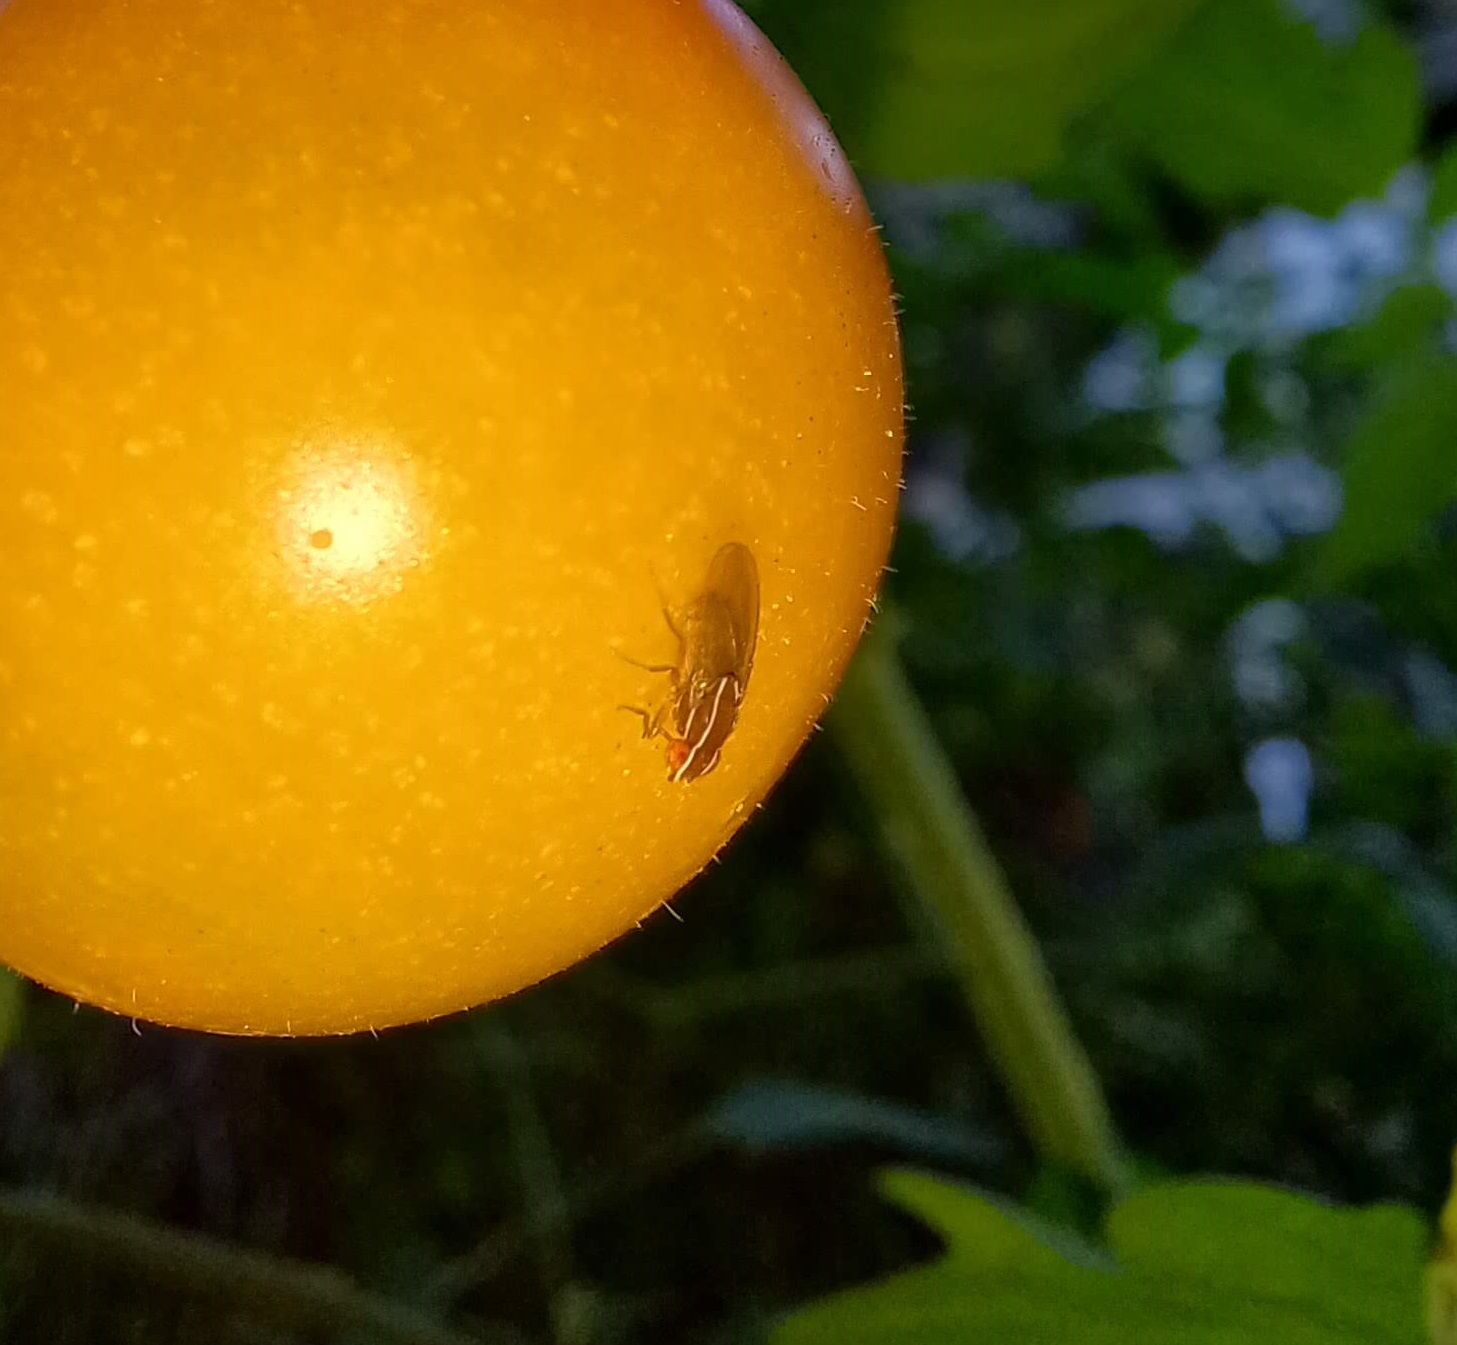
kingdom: Animalia
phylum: Arthropoda
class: Insecta
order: Diptera
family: Drosophilidae
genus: Zaprionus
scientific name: Zaprionus indianus
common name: African fig fly
